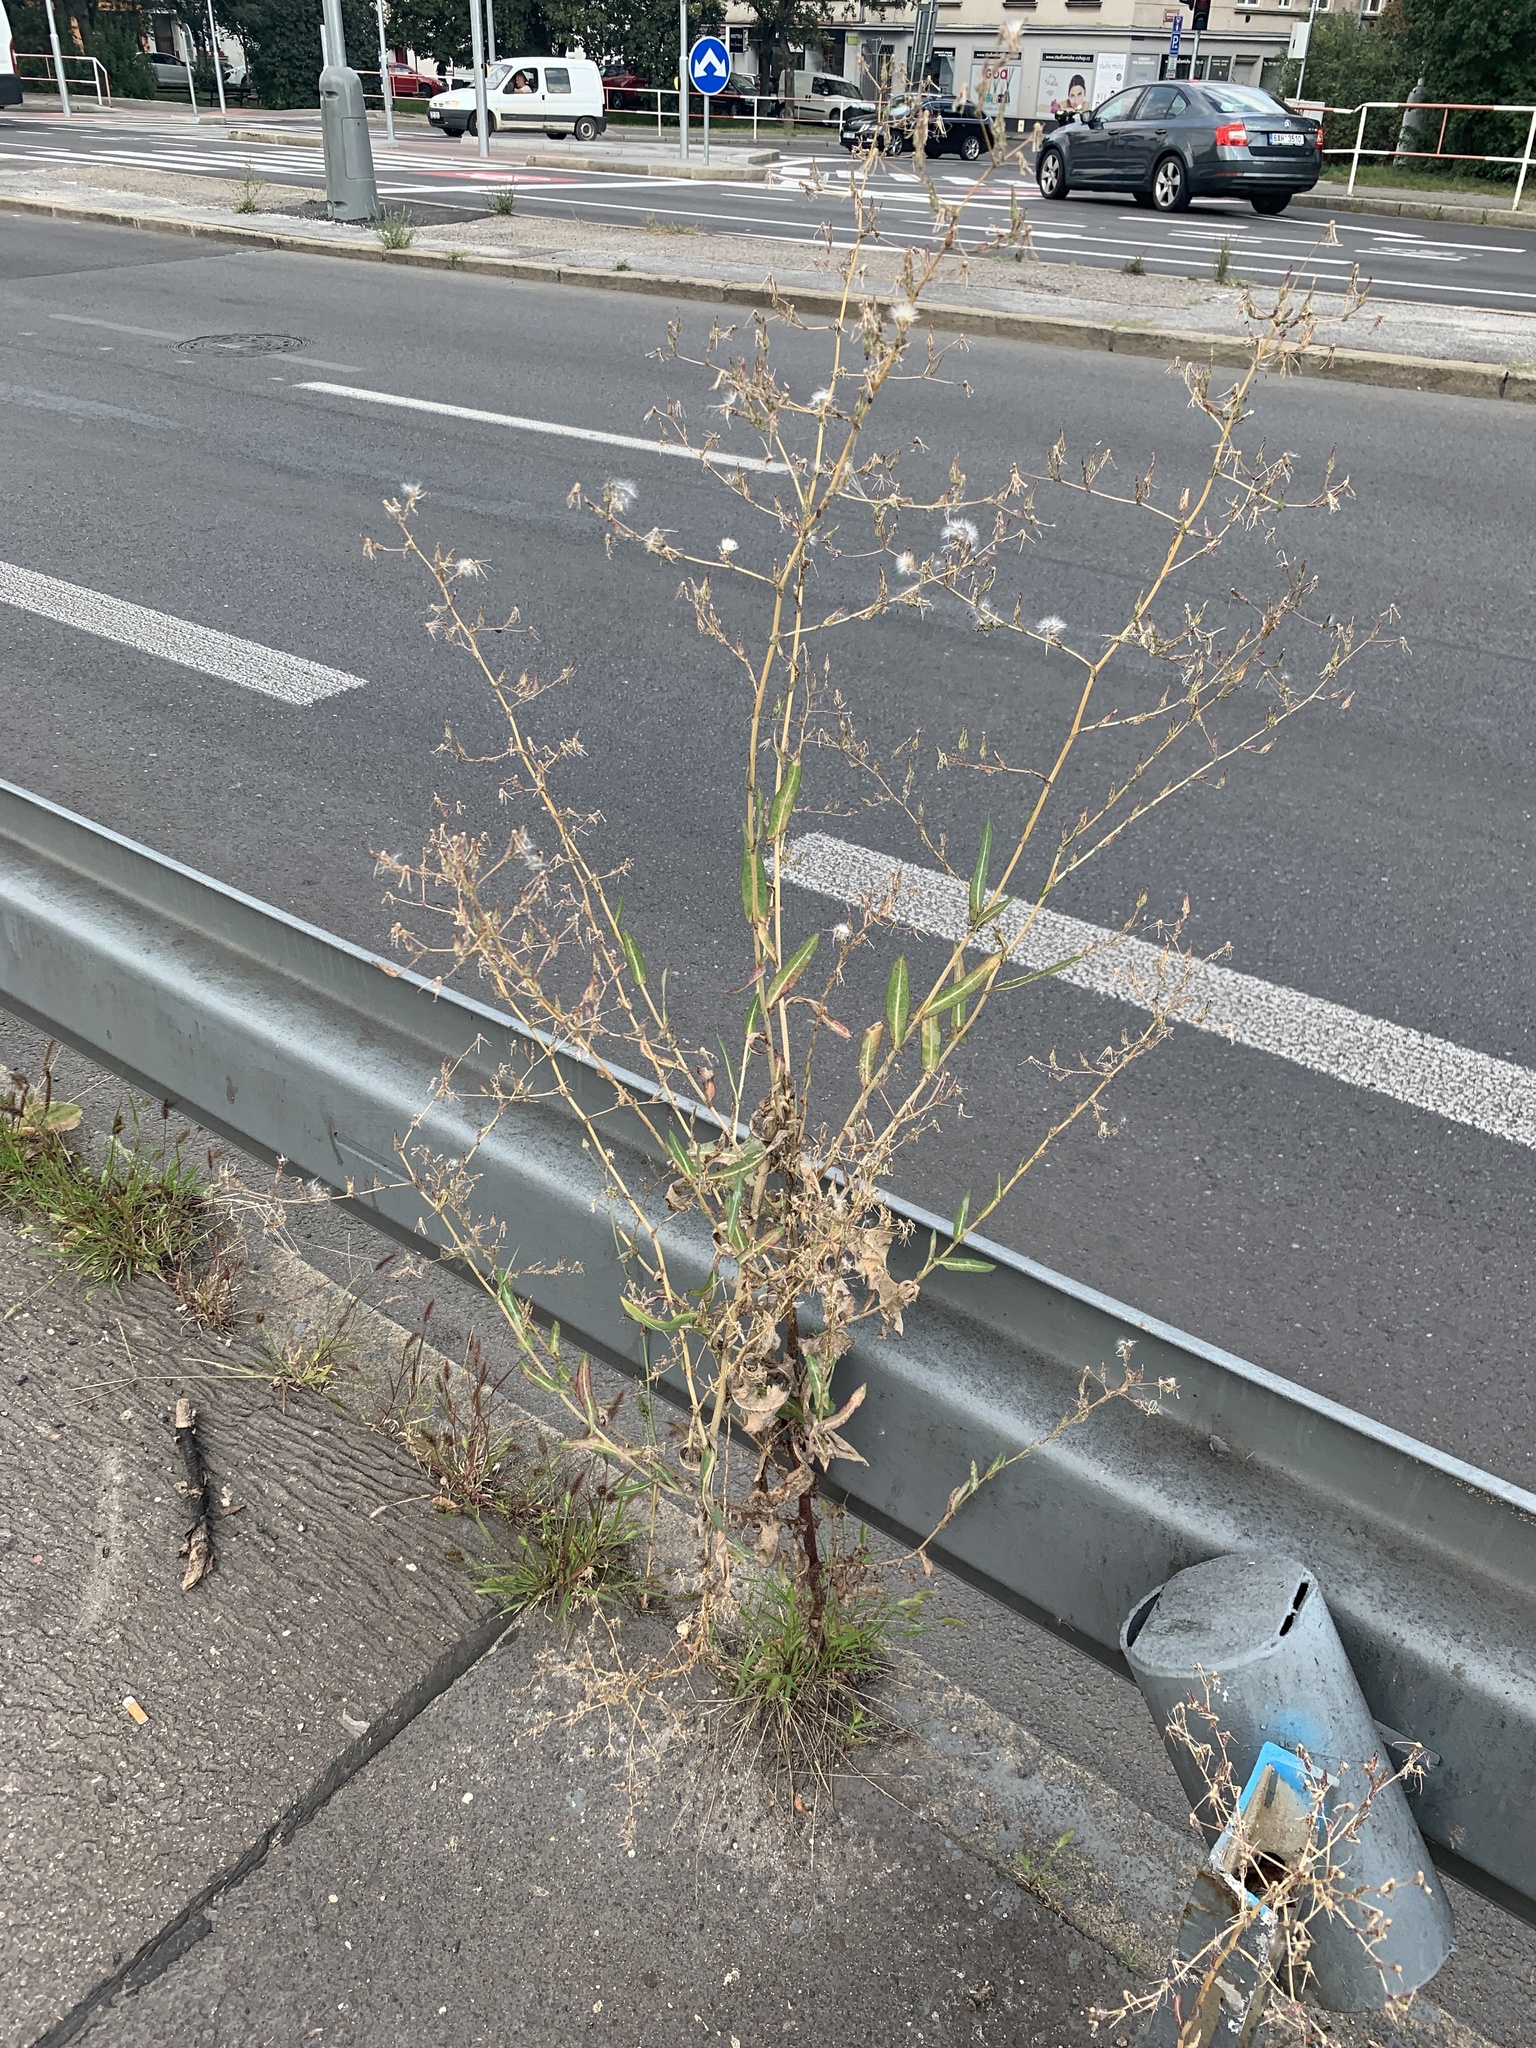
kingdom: Plantae
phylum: Tracheophyta
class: Magnoliopsida
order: Asterales
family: Asteraceae
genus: Lactuca
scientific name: Lactuca serriola
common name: Prickly lettuce
